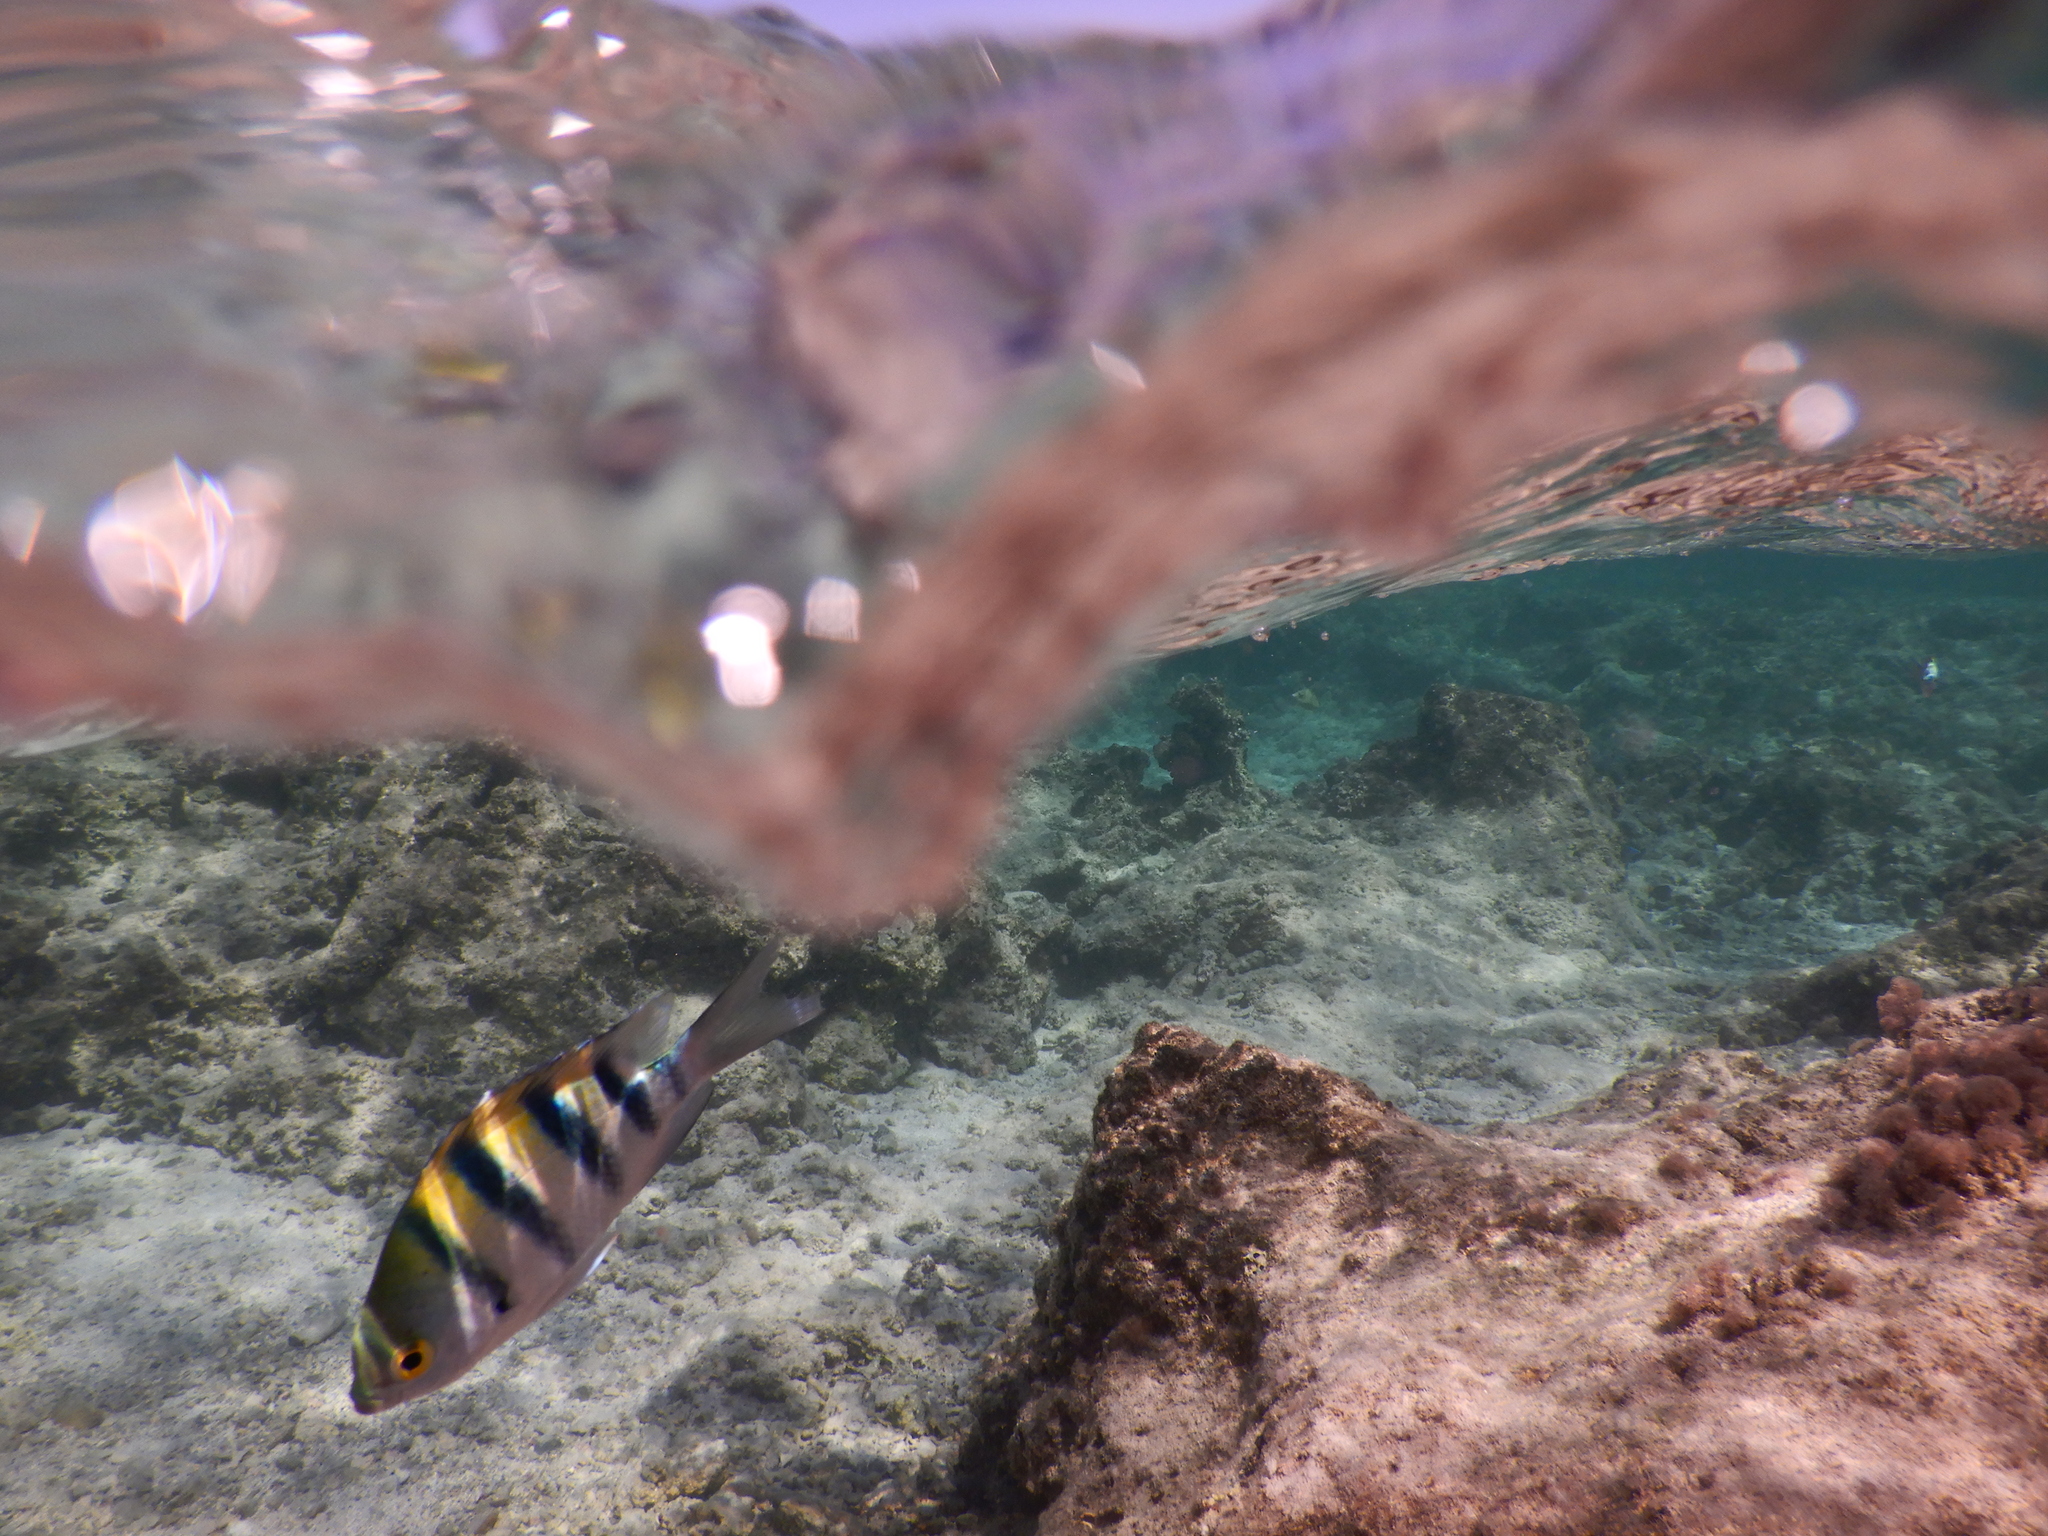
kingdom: Animalia
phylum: Chordata
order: Perciformes
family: Pomacentridae
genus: Abudefduf
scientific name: Abudefduf vaigiensis
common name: Indo-pacific sergeant
